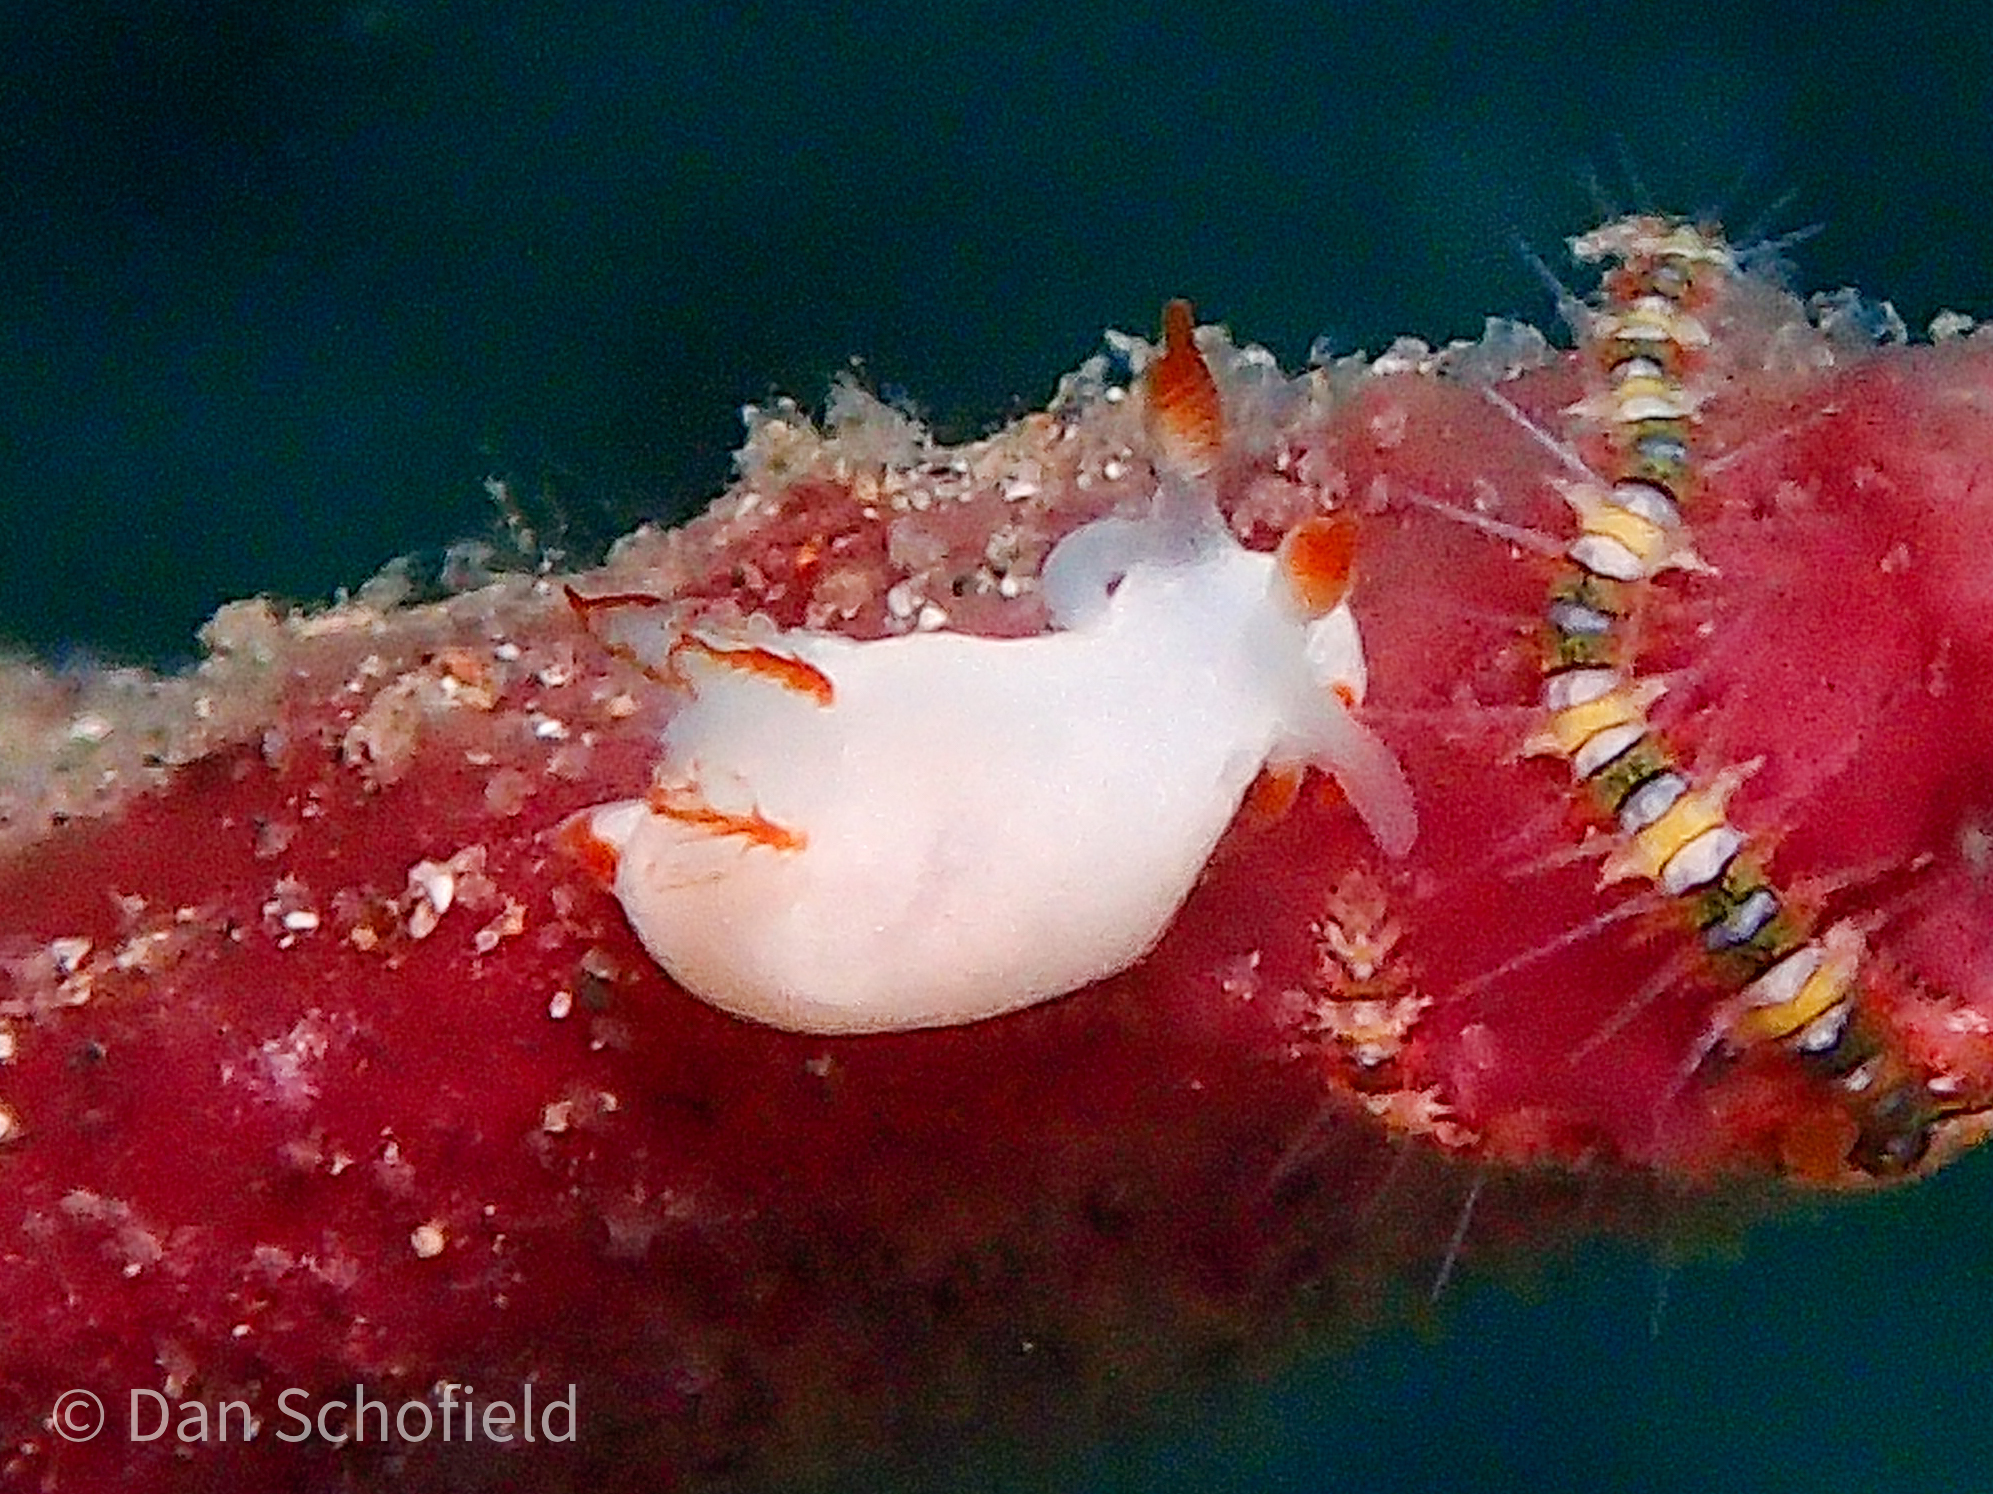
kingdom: Animalia
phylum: Mollusca
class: Gastropoda
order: Nudibranchia
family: Goniodorididae
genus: Trapania
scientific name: Trapania vitta
